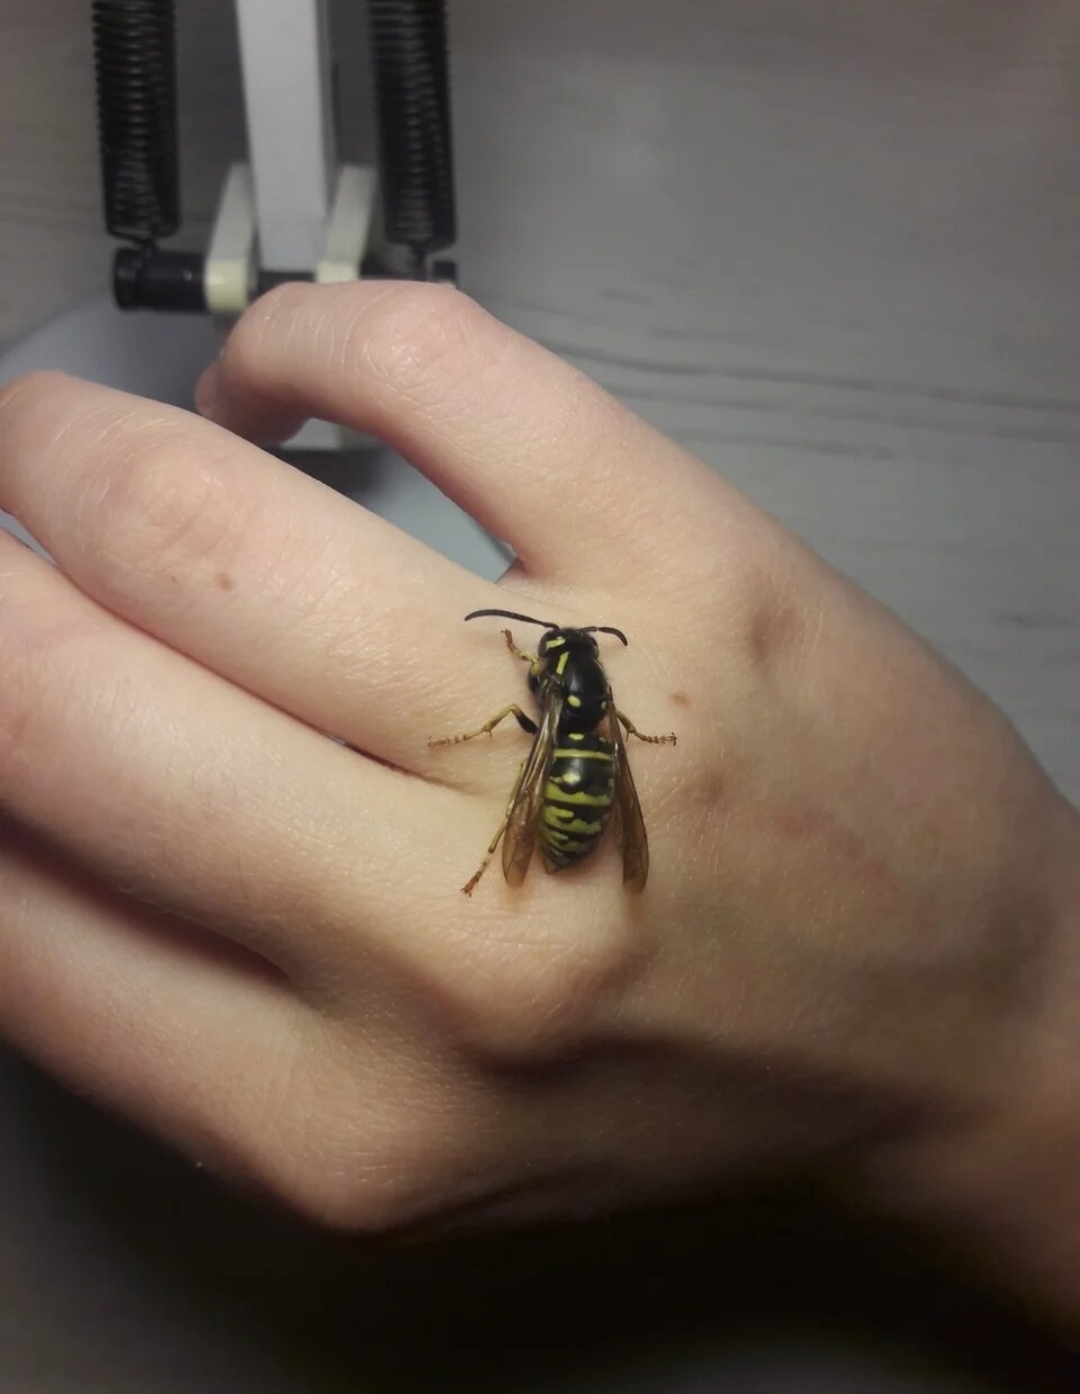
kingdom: Animalia
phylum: Arthropoda
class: Insecta
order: Hymenoptera
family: Vespidae
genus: Vespula
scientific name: Vespula austriaca
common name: Cuckoo wasp
